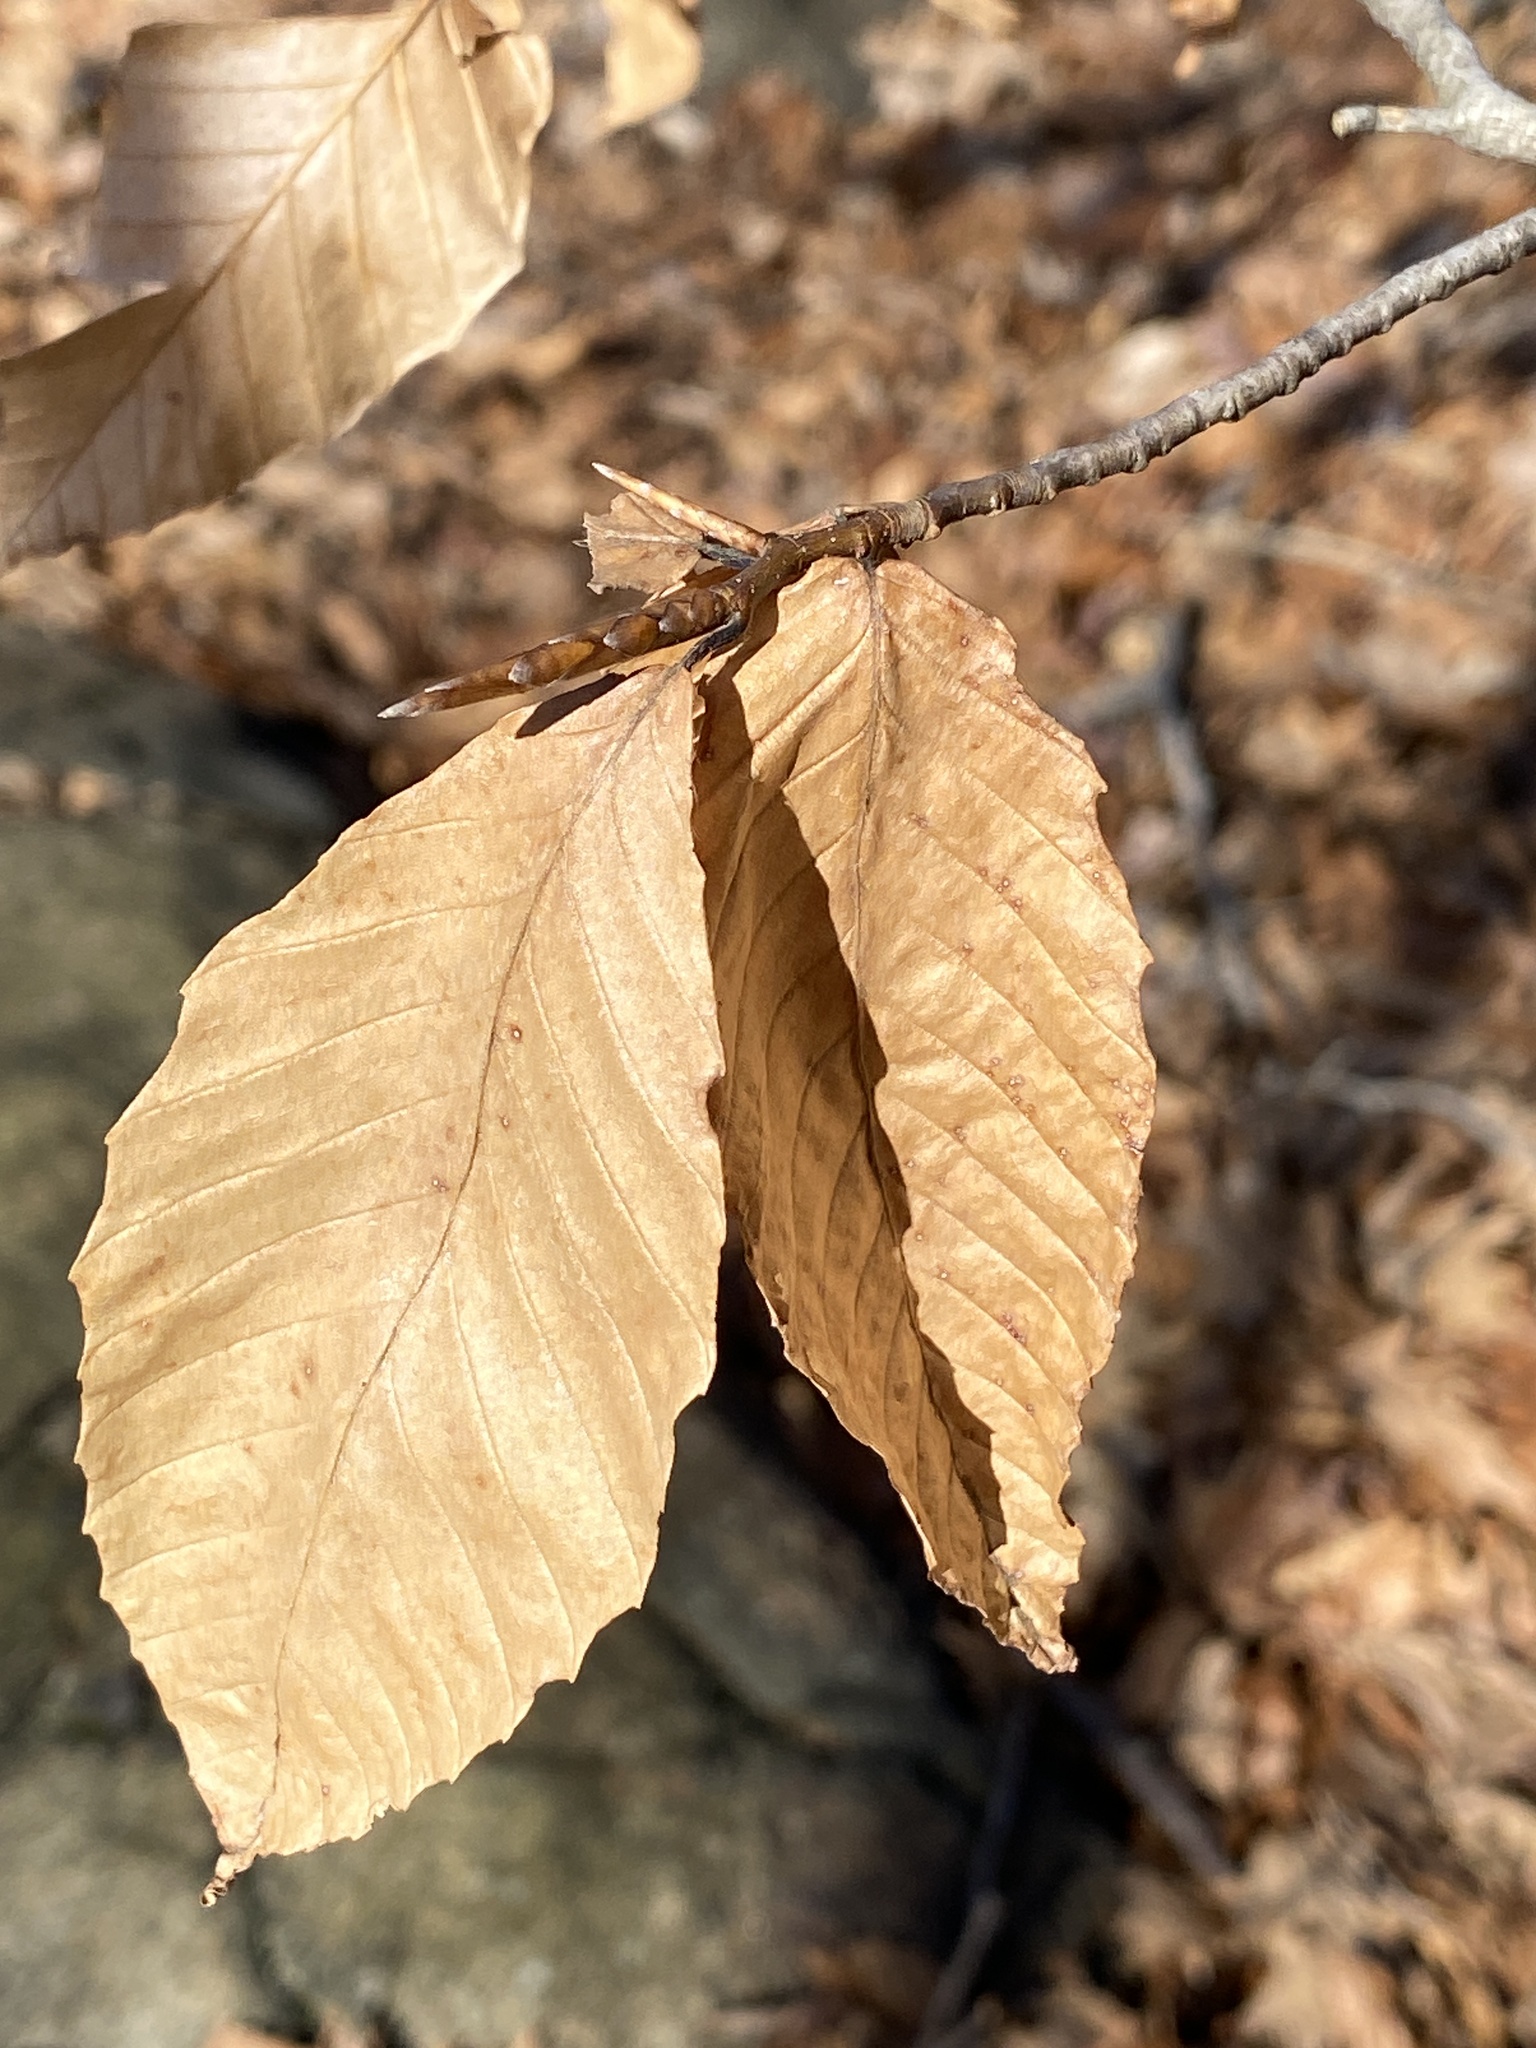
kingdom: Plantae
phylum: Tracheophyta
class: Magnoliopsida
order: Fagales
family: Fagaceae
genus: Fagus
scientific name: Fagus grandifolia
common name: American beech
